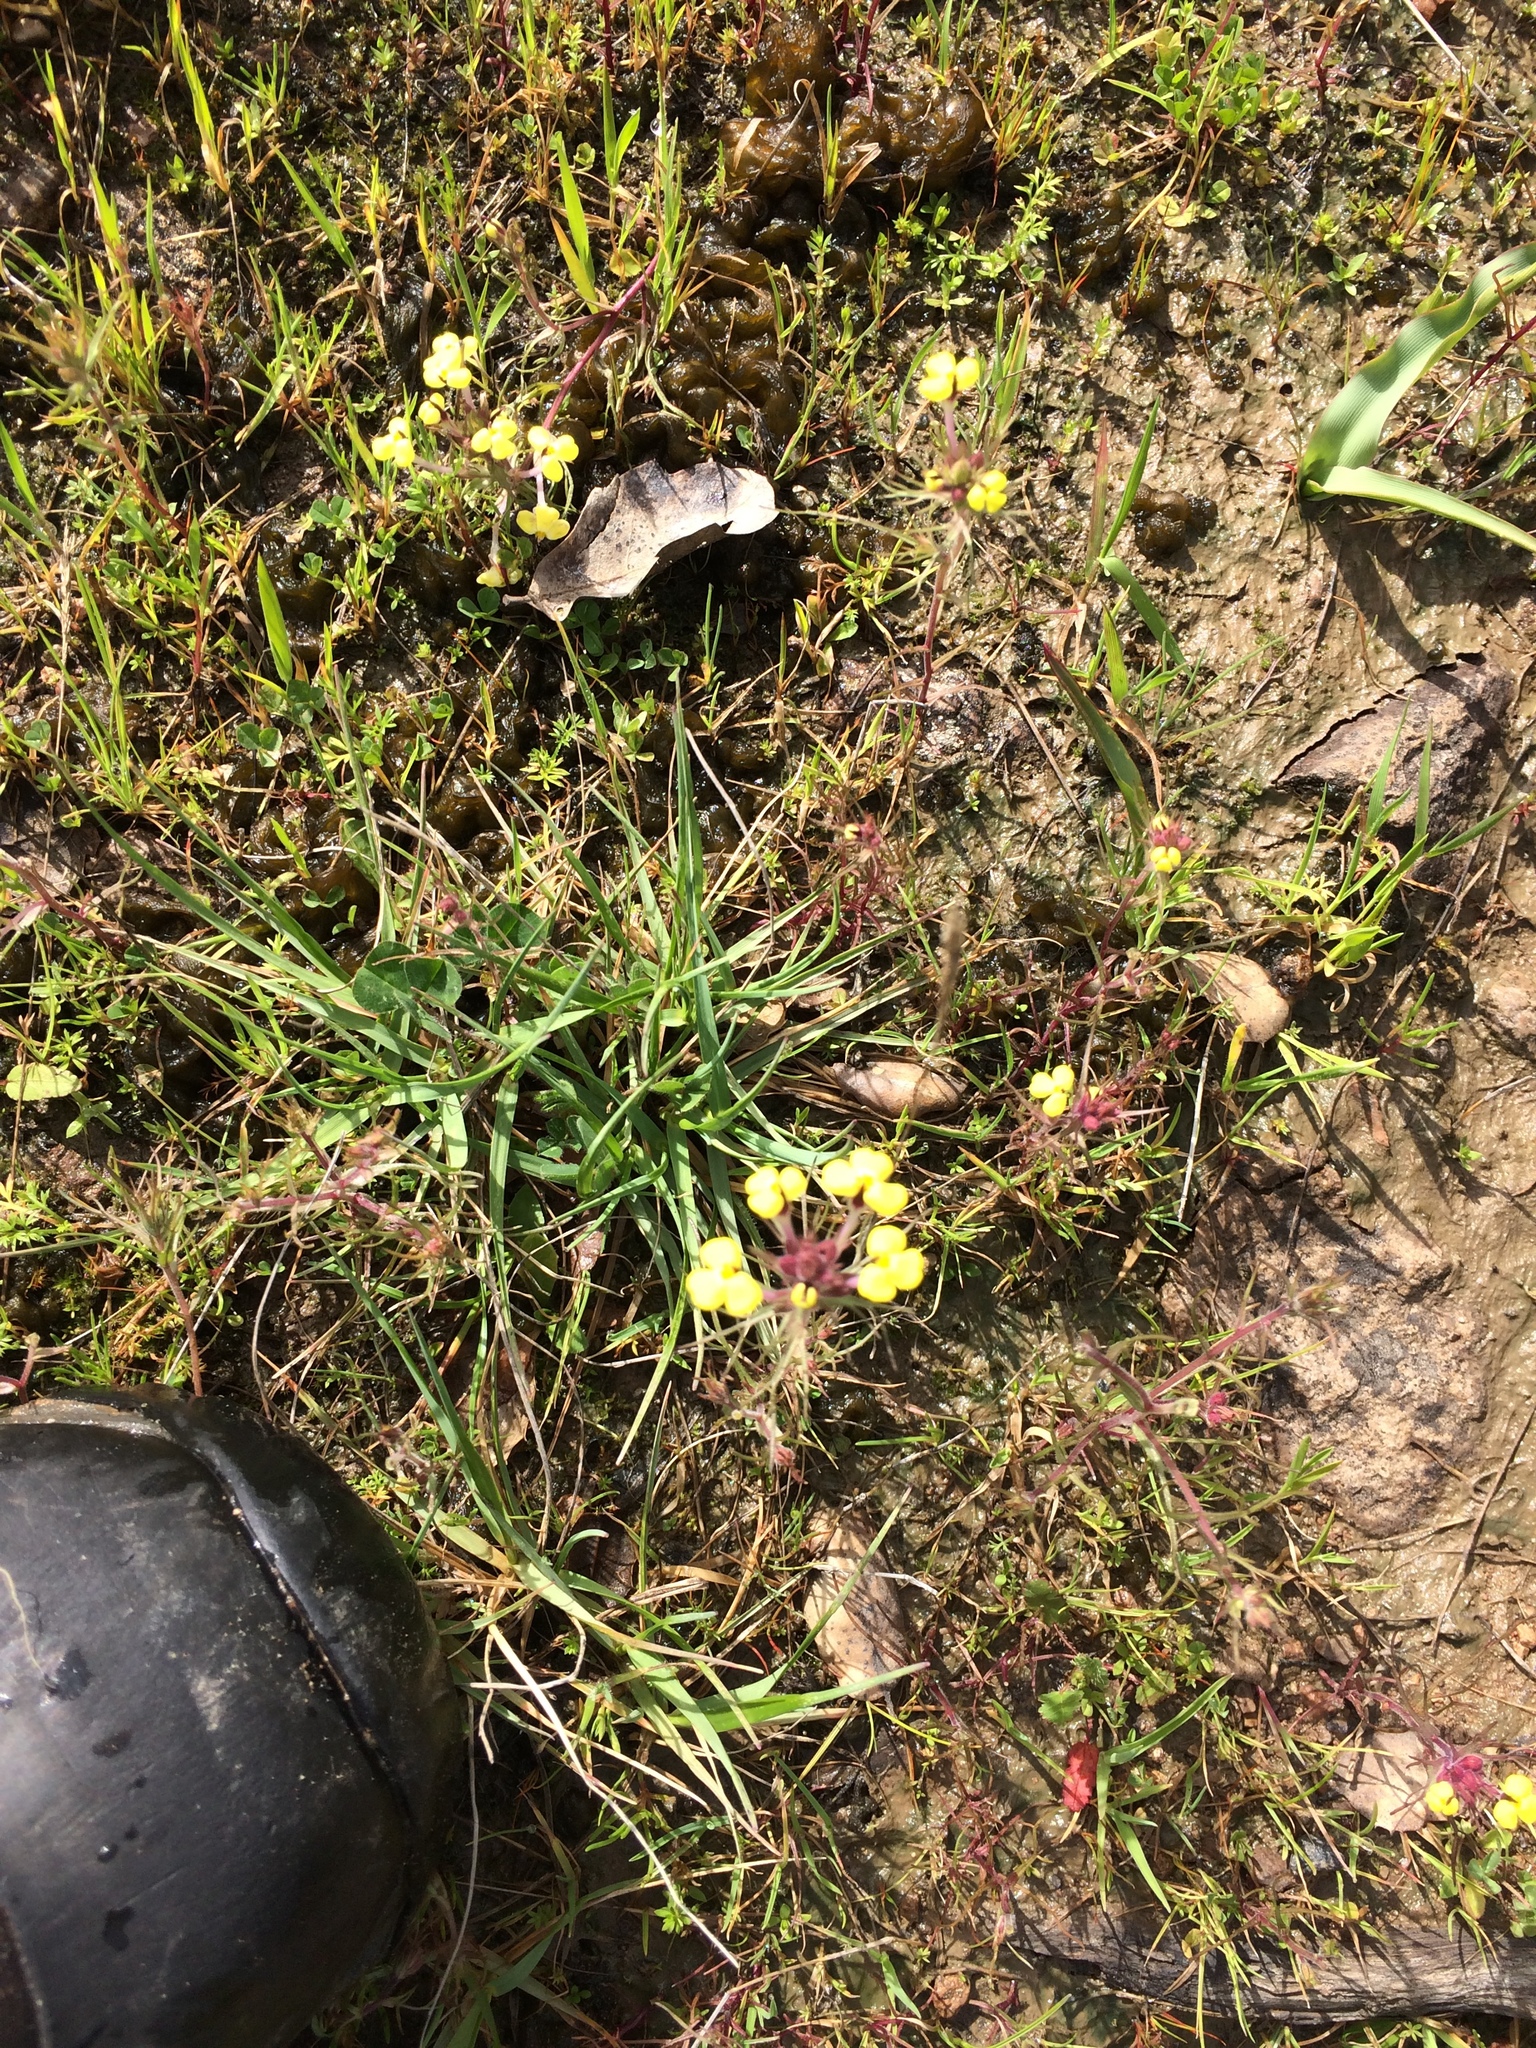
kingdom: Plantae
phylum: Tracheophyta
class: Magnoliopsida
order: Lamiales
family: Orobanchaceae
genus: Triphysaria
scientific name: Triphysaria eriantha
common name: Johnny-tuck
